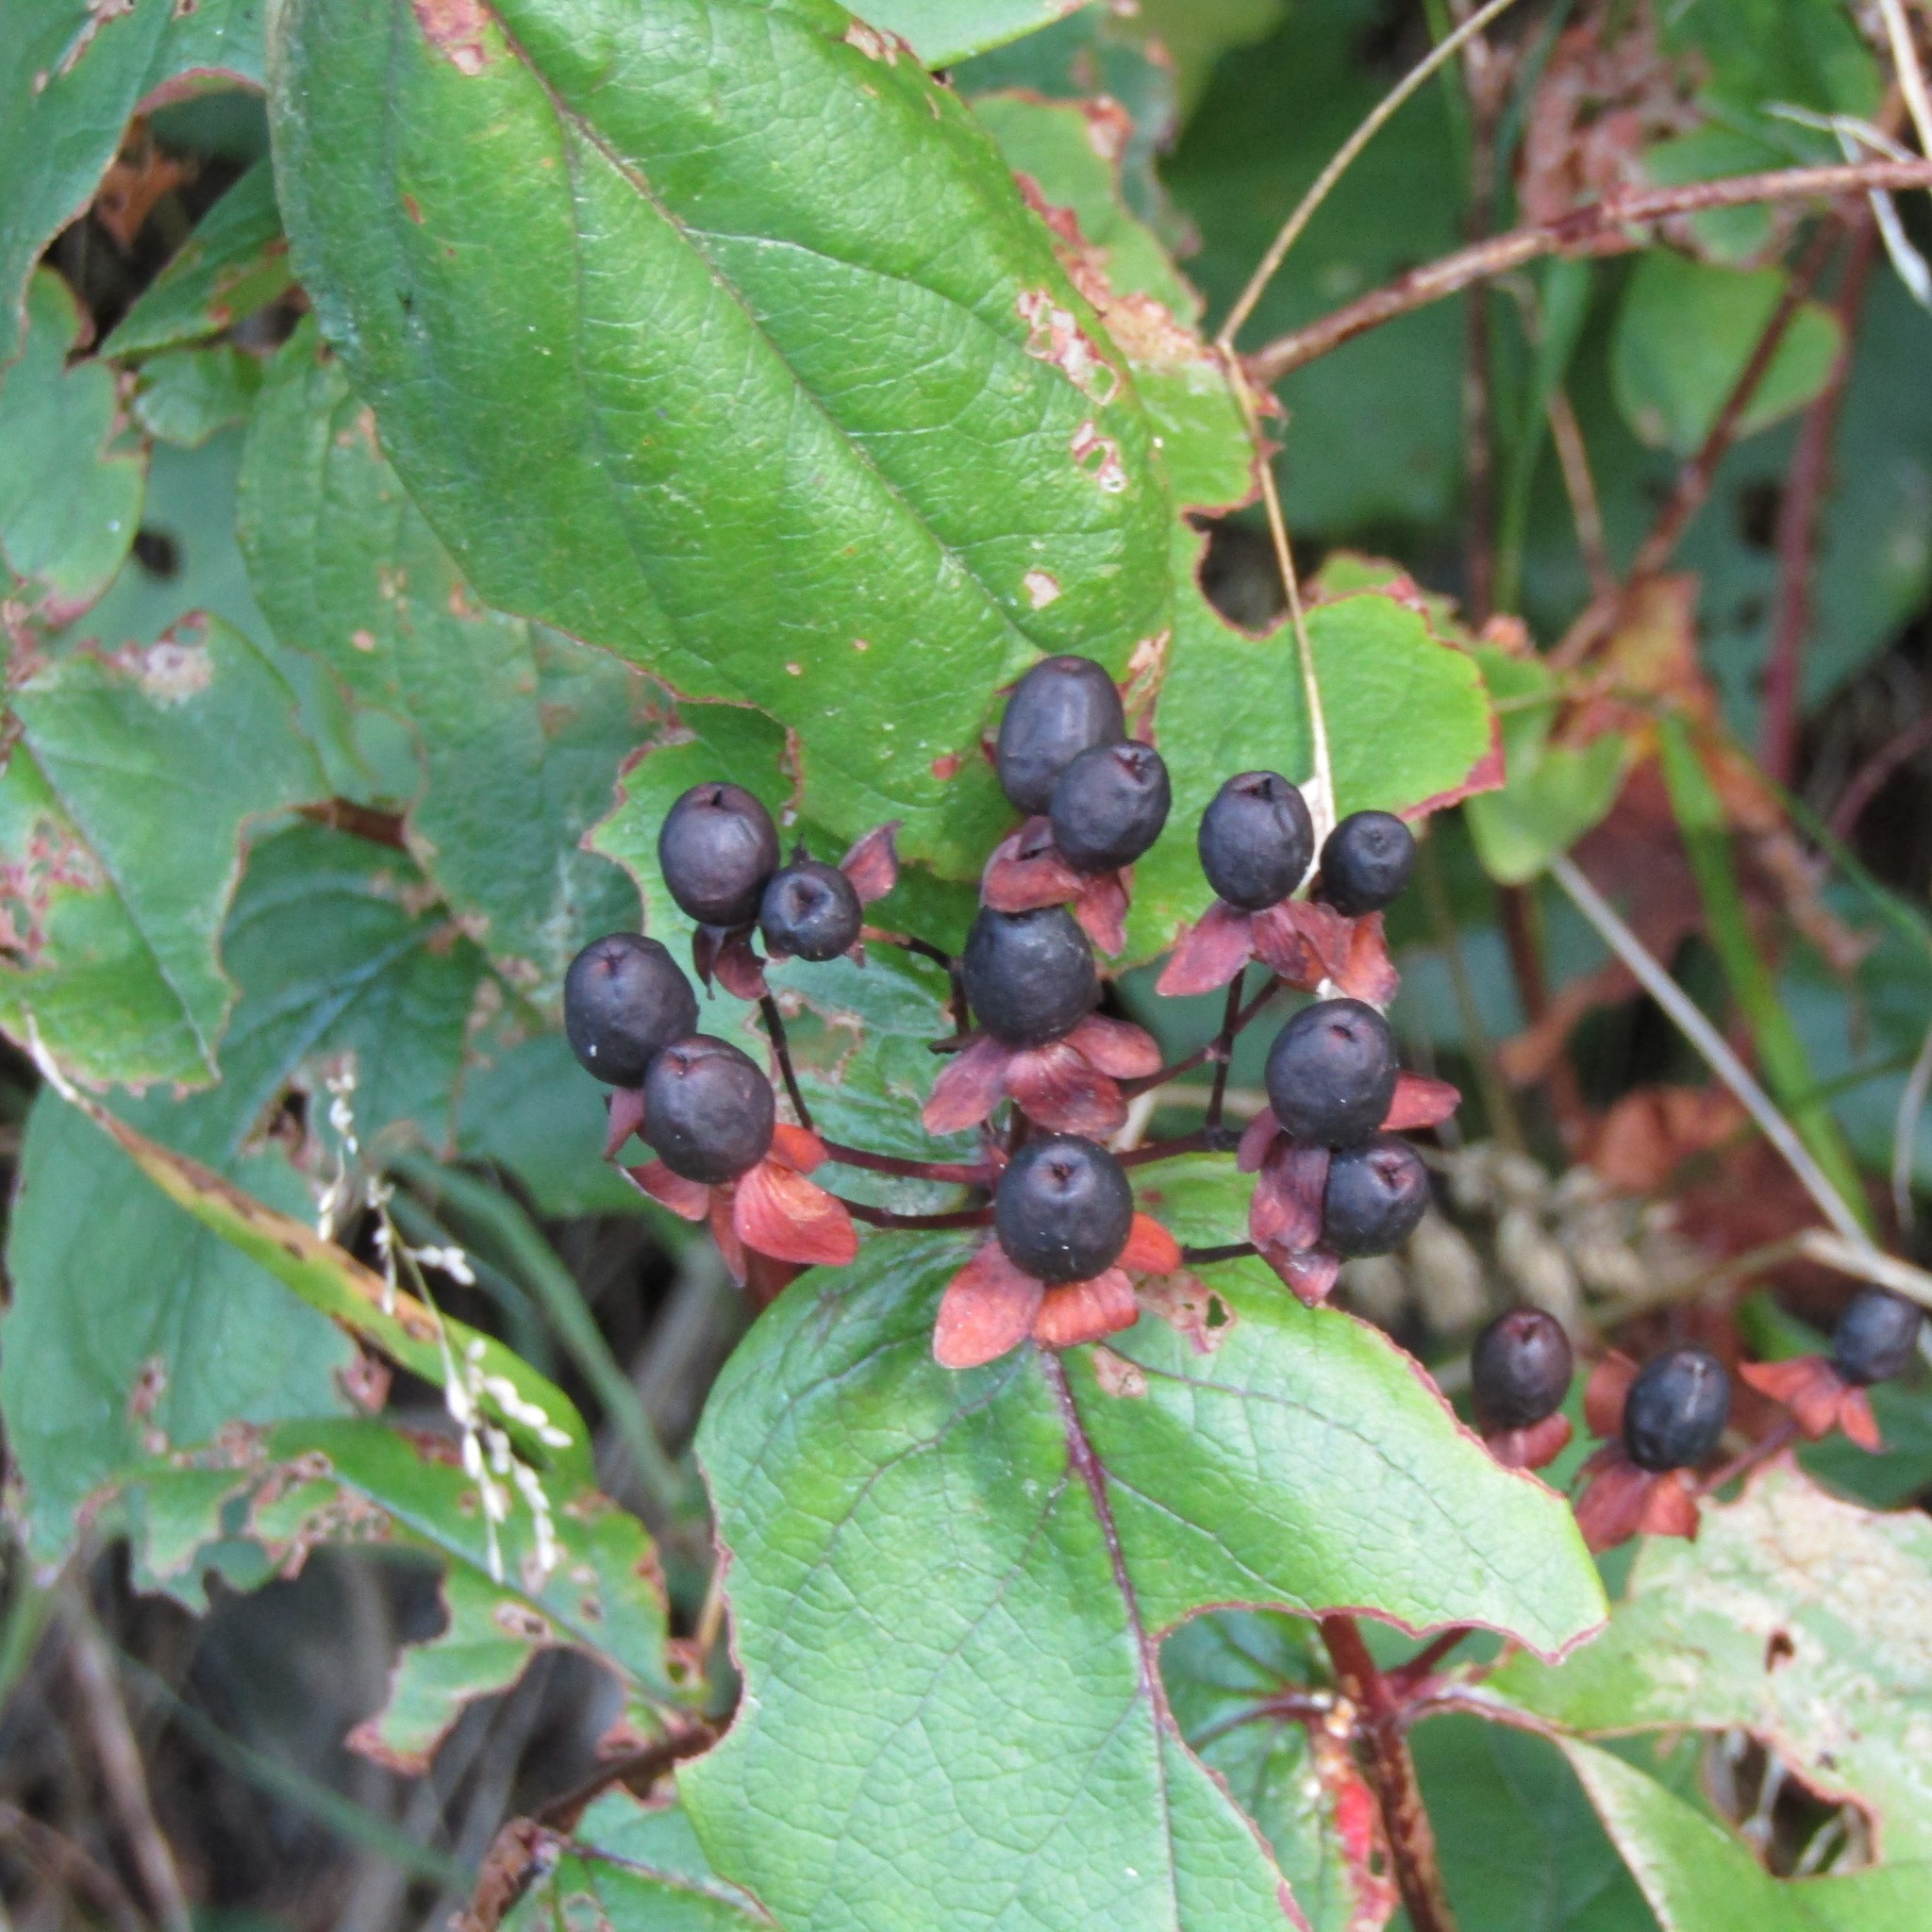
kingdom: Plantae
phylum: Tracheophyta
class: Magnoliopsida
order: Malpighiales
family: Hypericaceae
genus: Hypericum
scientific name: Hypericum androsaemum
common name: Sweet-amber
